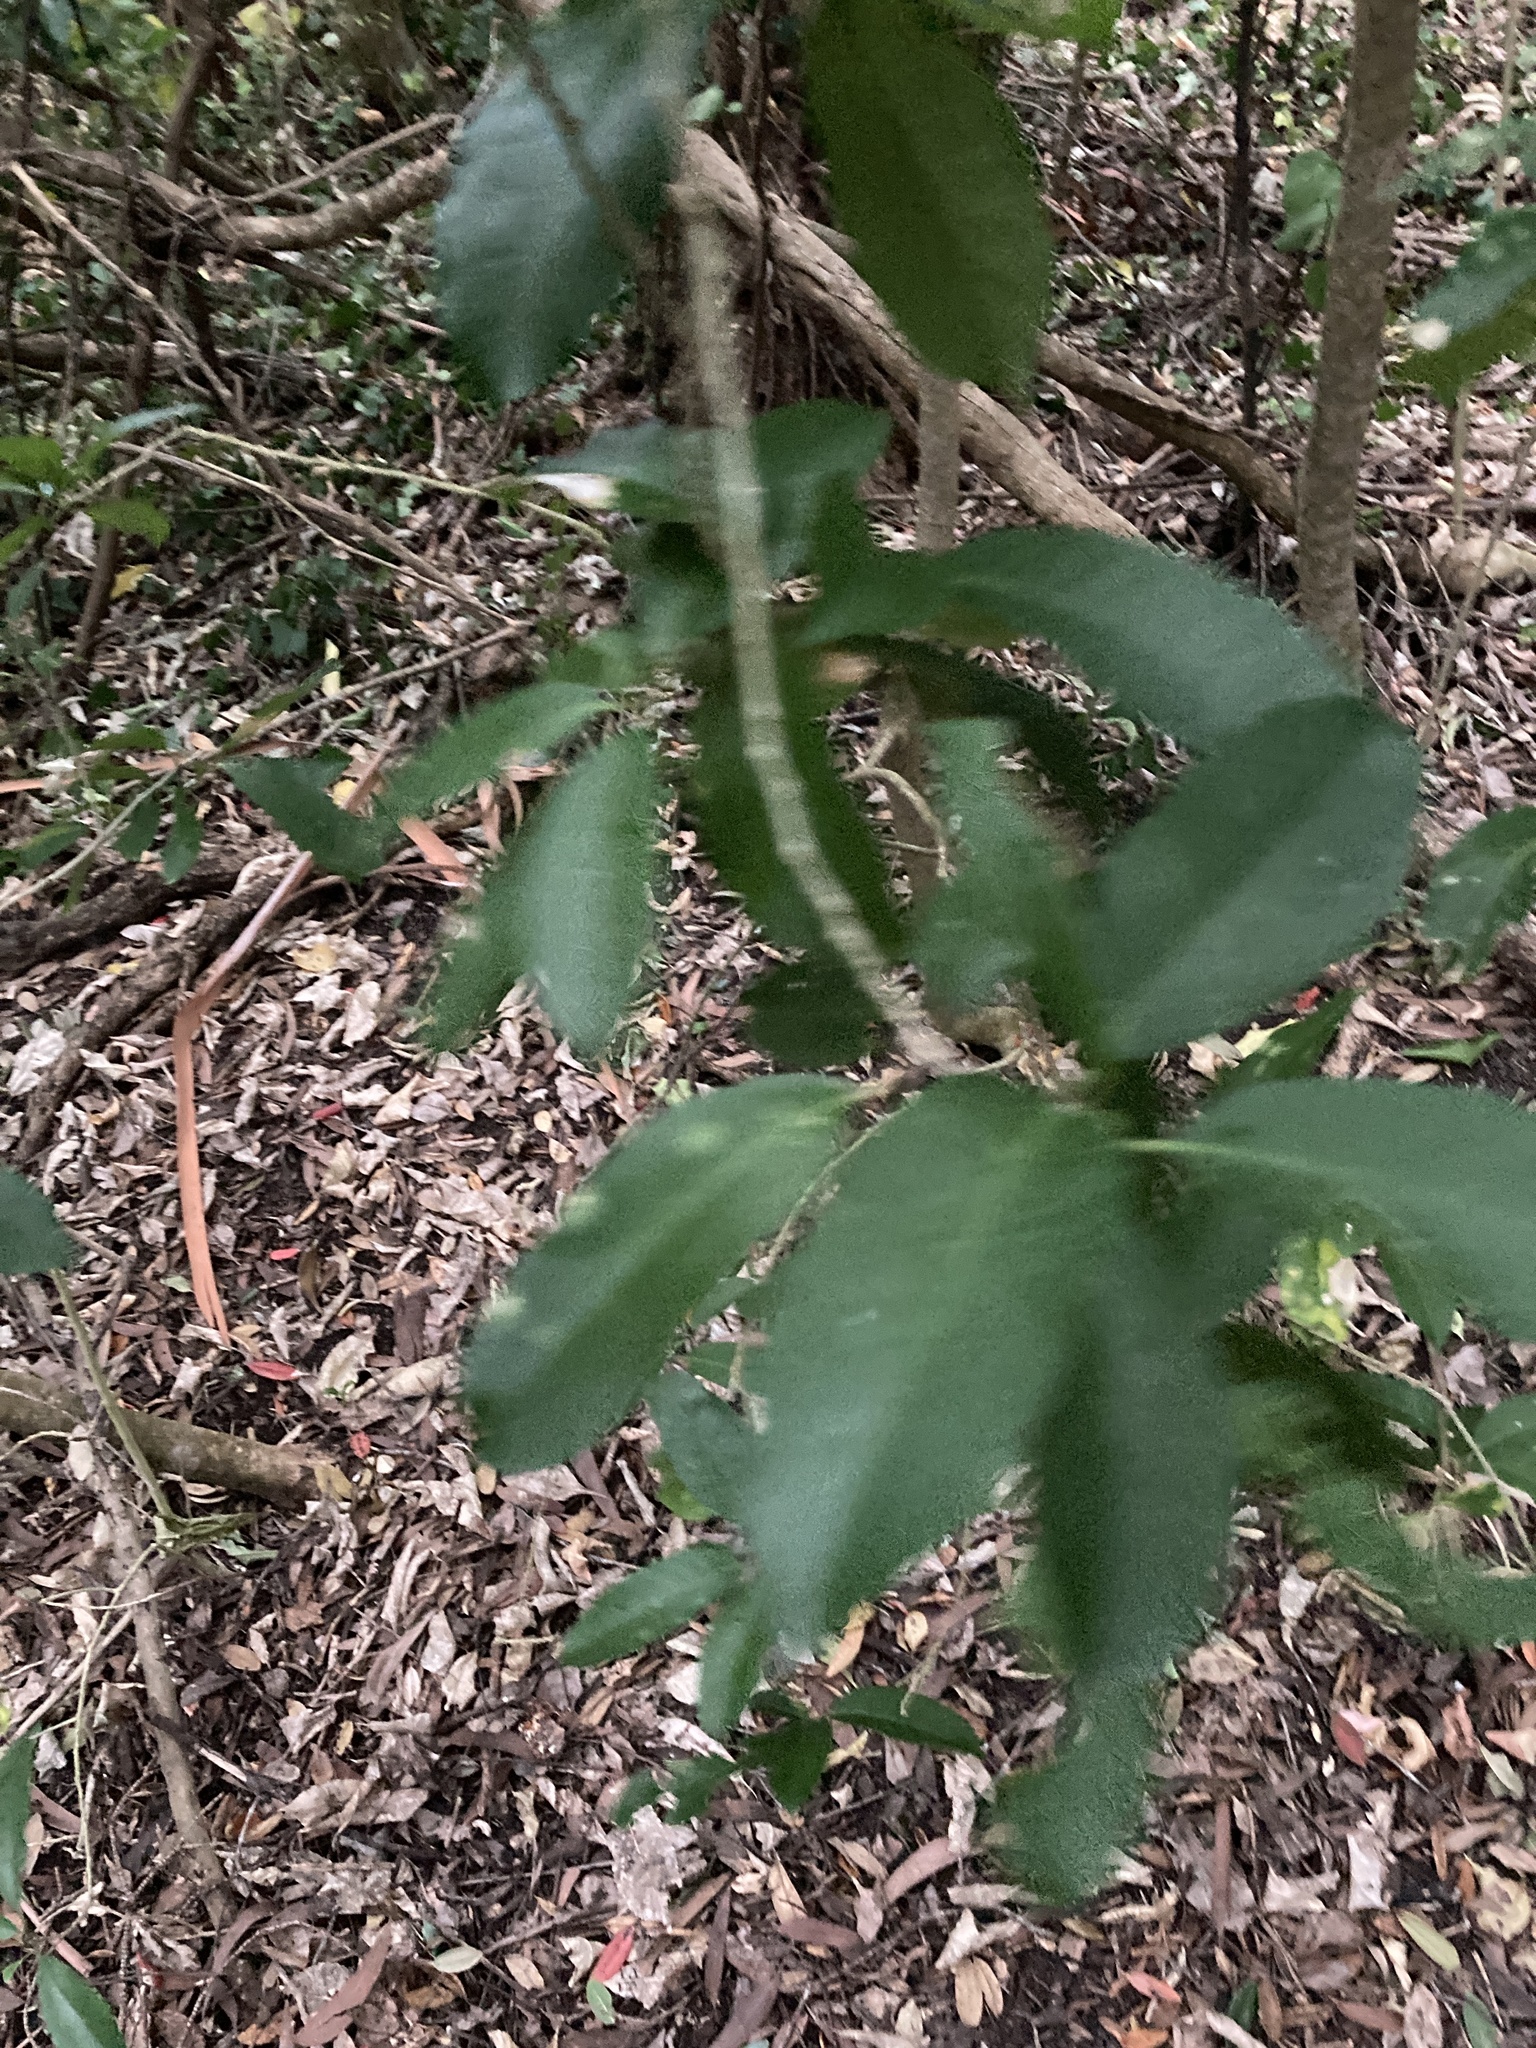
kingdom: Plantae
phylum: Tracheophyta
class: Magnoliopsida
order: Malpighiales
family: Violaceae
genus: Melicytus
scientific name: Melicytus ramiflorus
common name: Mahoe
